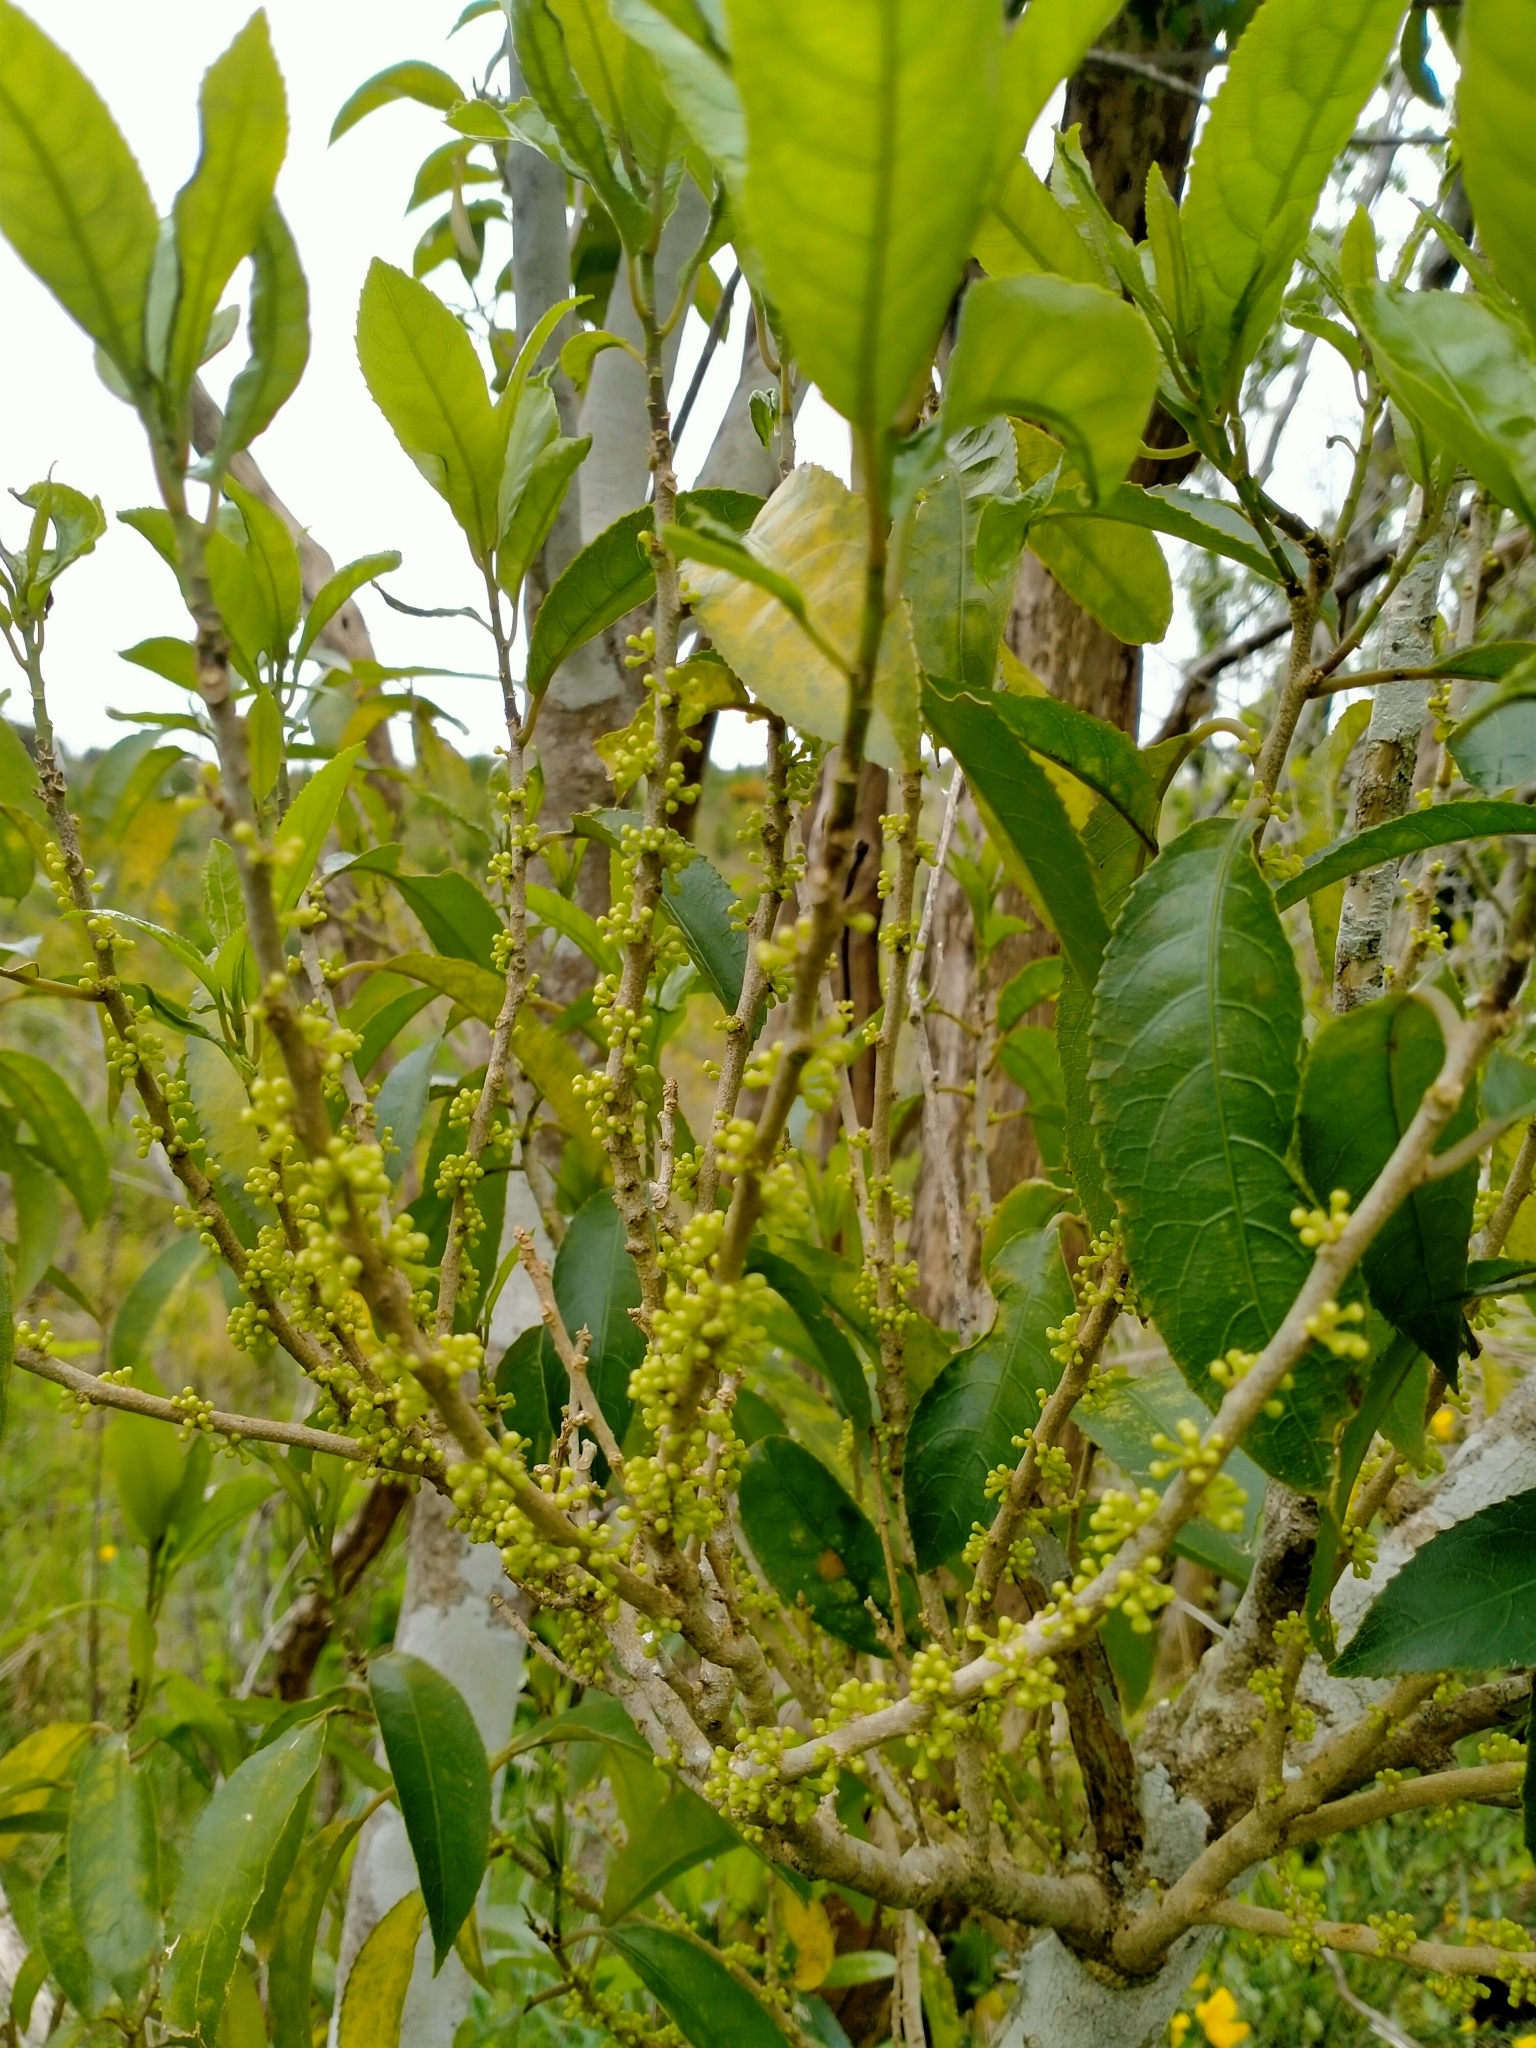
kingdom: Plantae
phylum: Tracheophyta
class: Magnoliopsida
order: Malpighiales
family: Violaceae
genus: Melicytus
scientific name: Melicytus ramiflorus
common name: Mahoe
